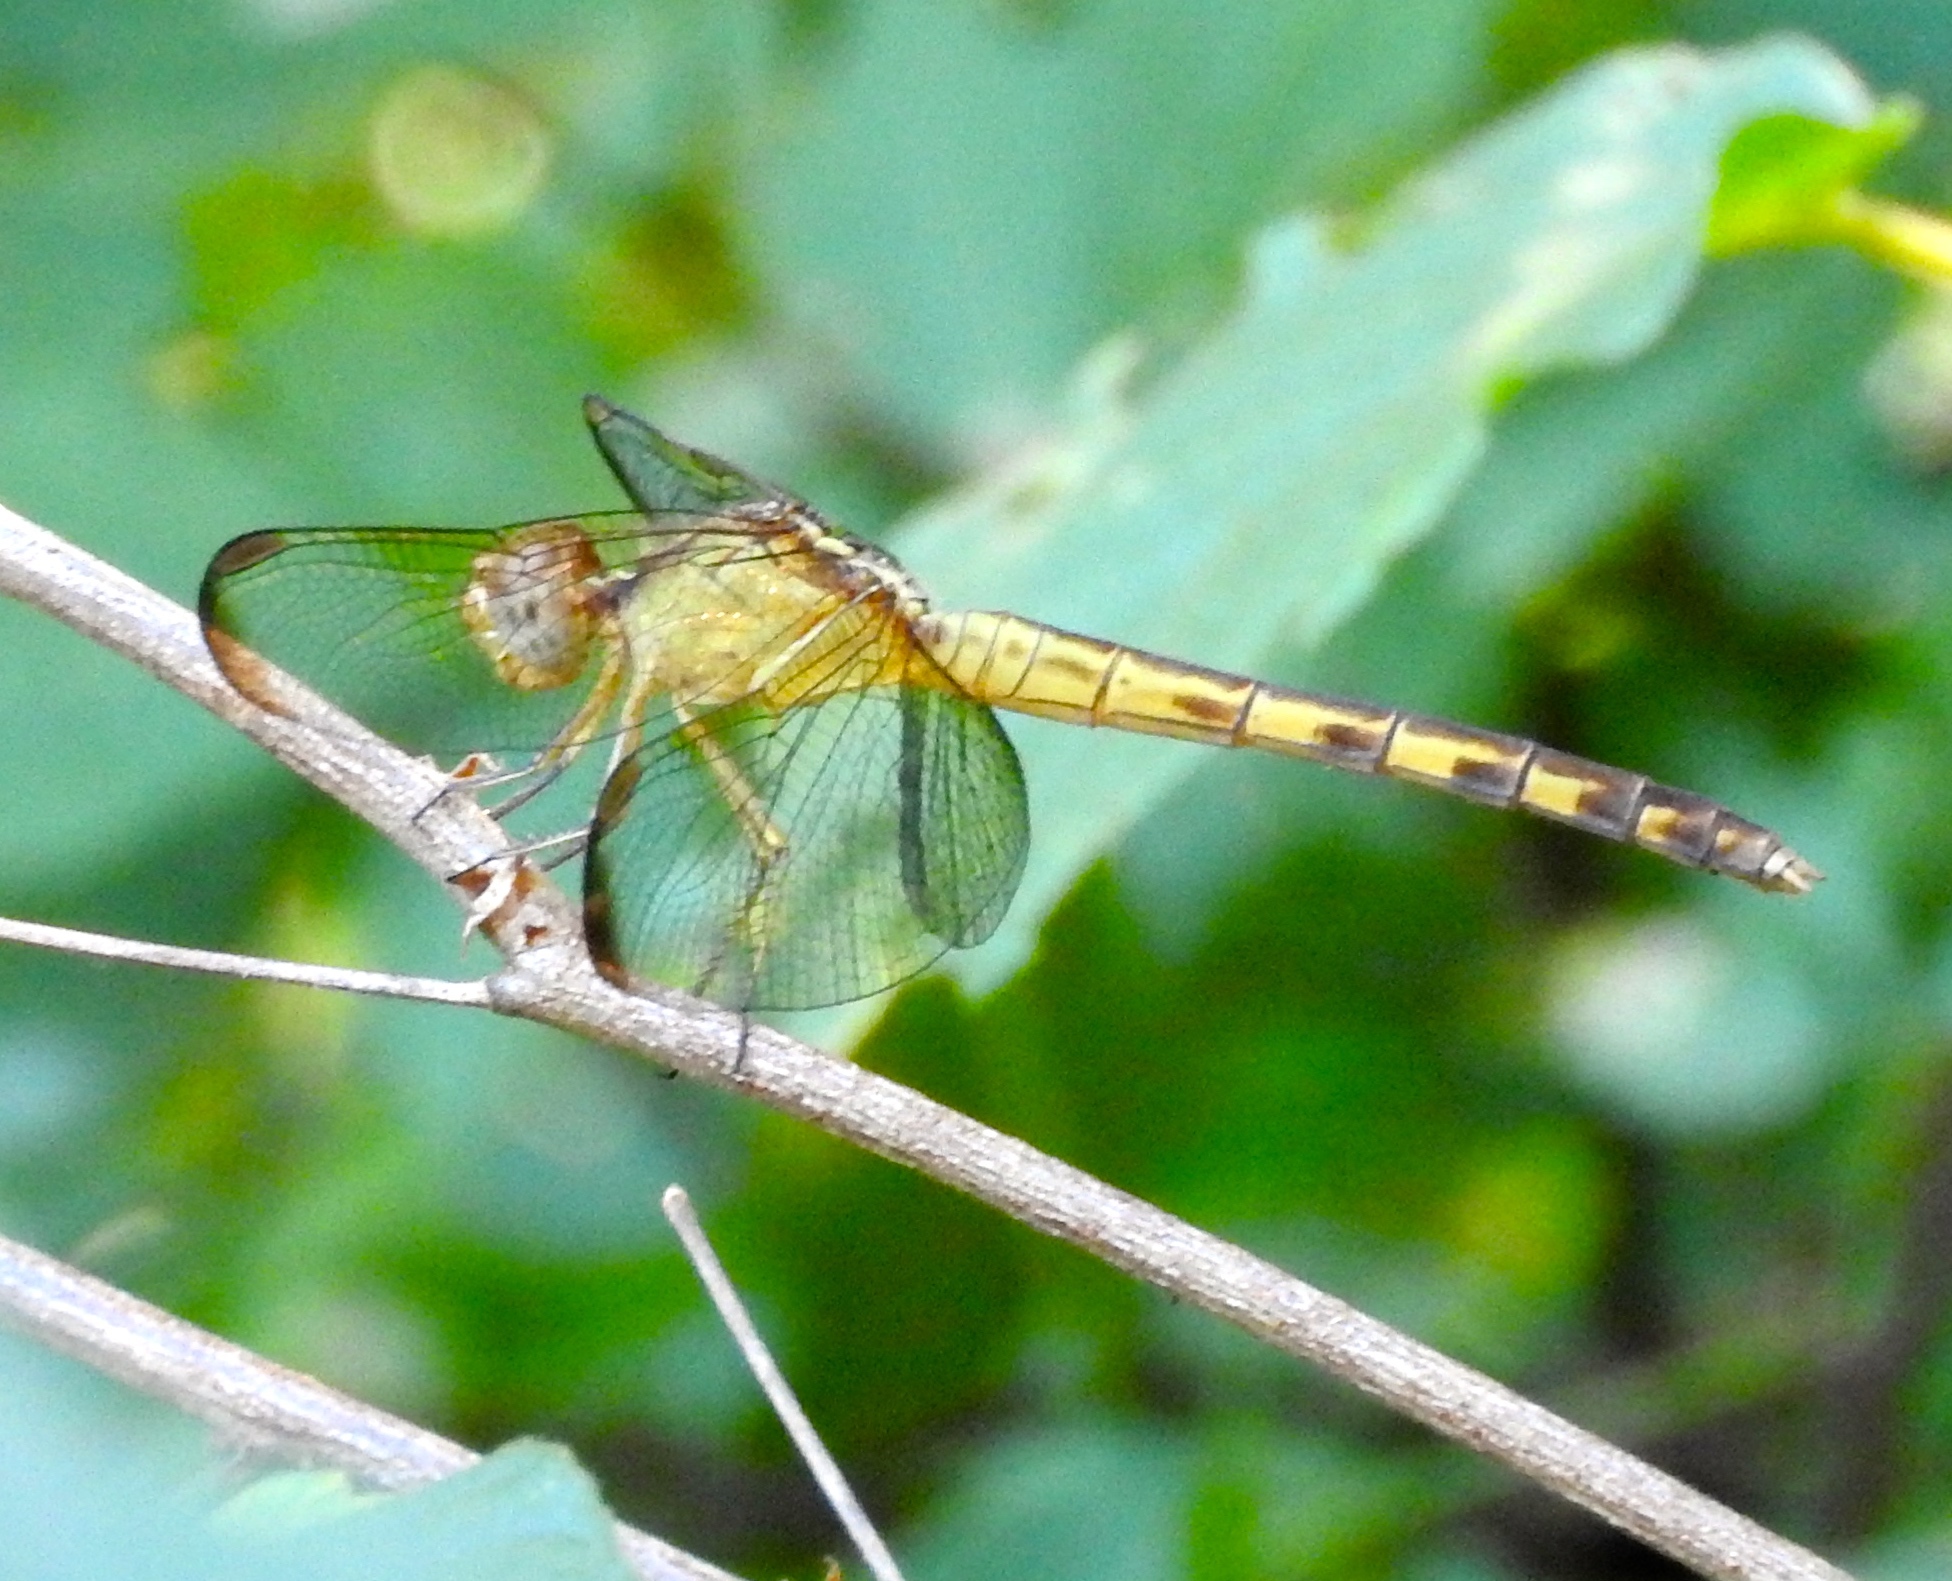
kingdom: Animalia
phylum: Arthropoda
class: Insecta
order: Odonata
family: Libellulidae
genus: Erythrodiplax
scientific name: Erythrodiplax
